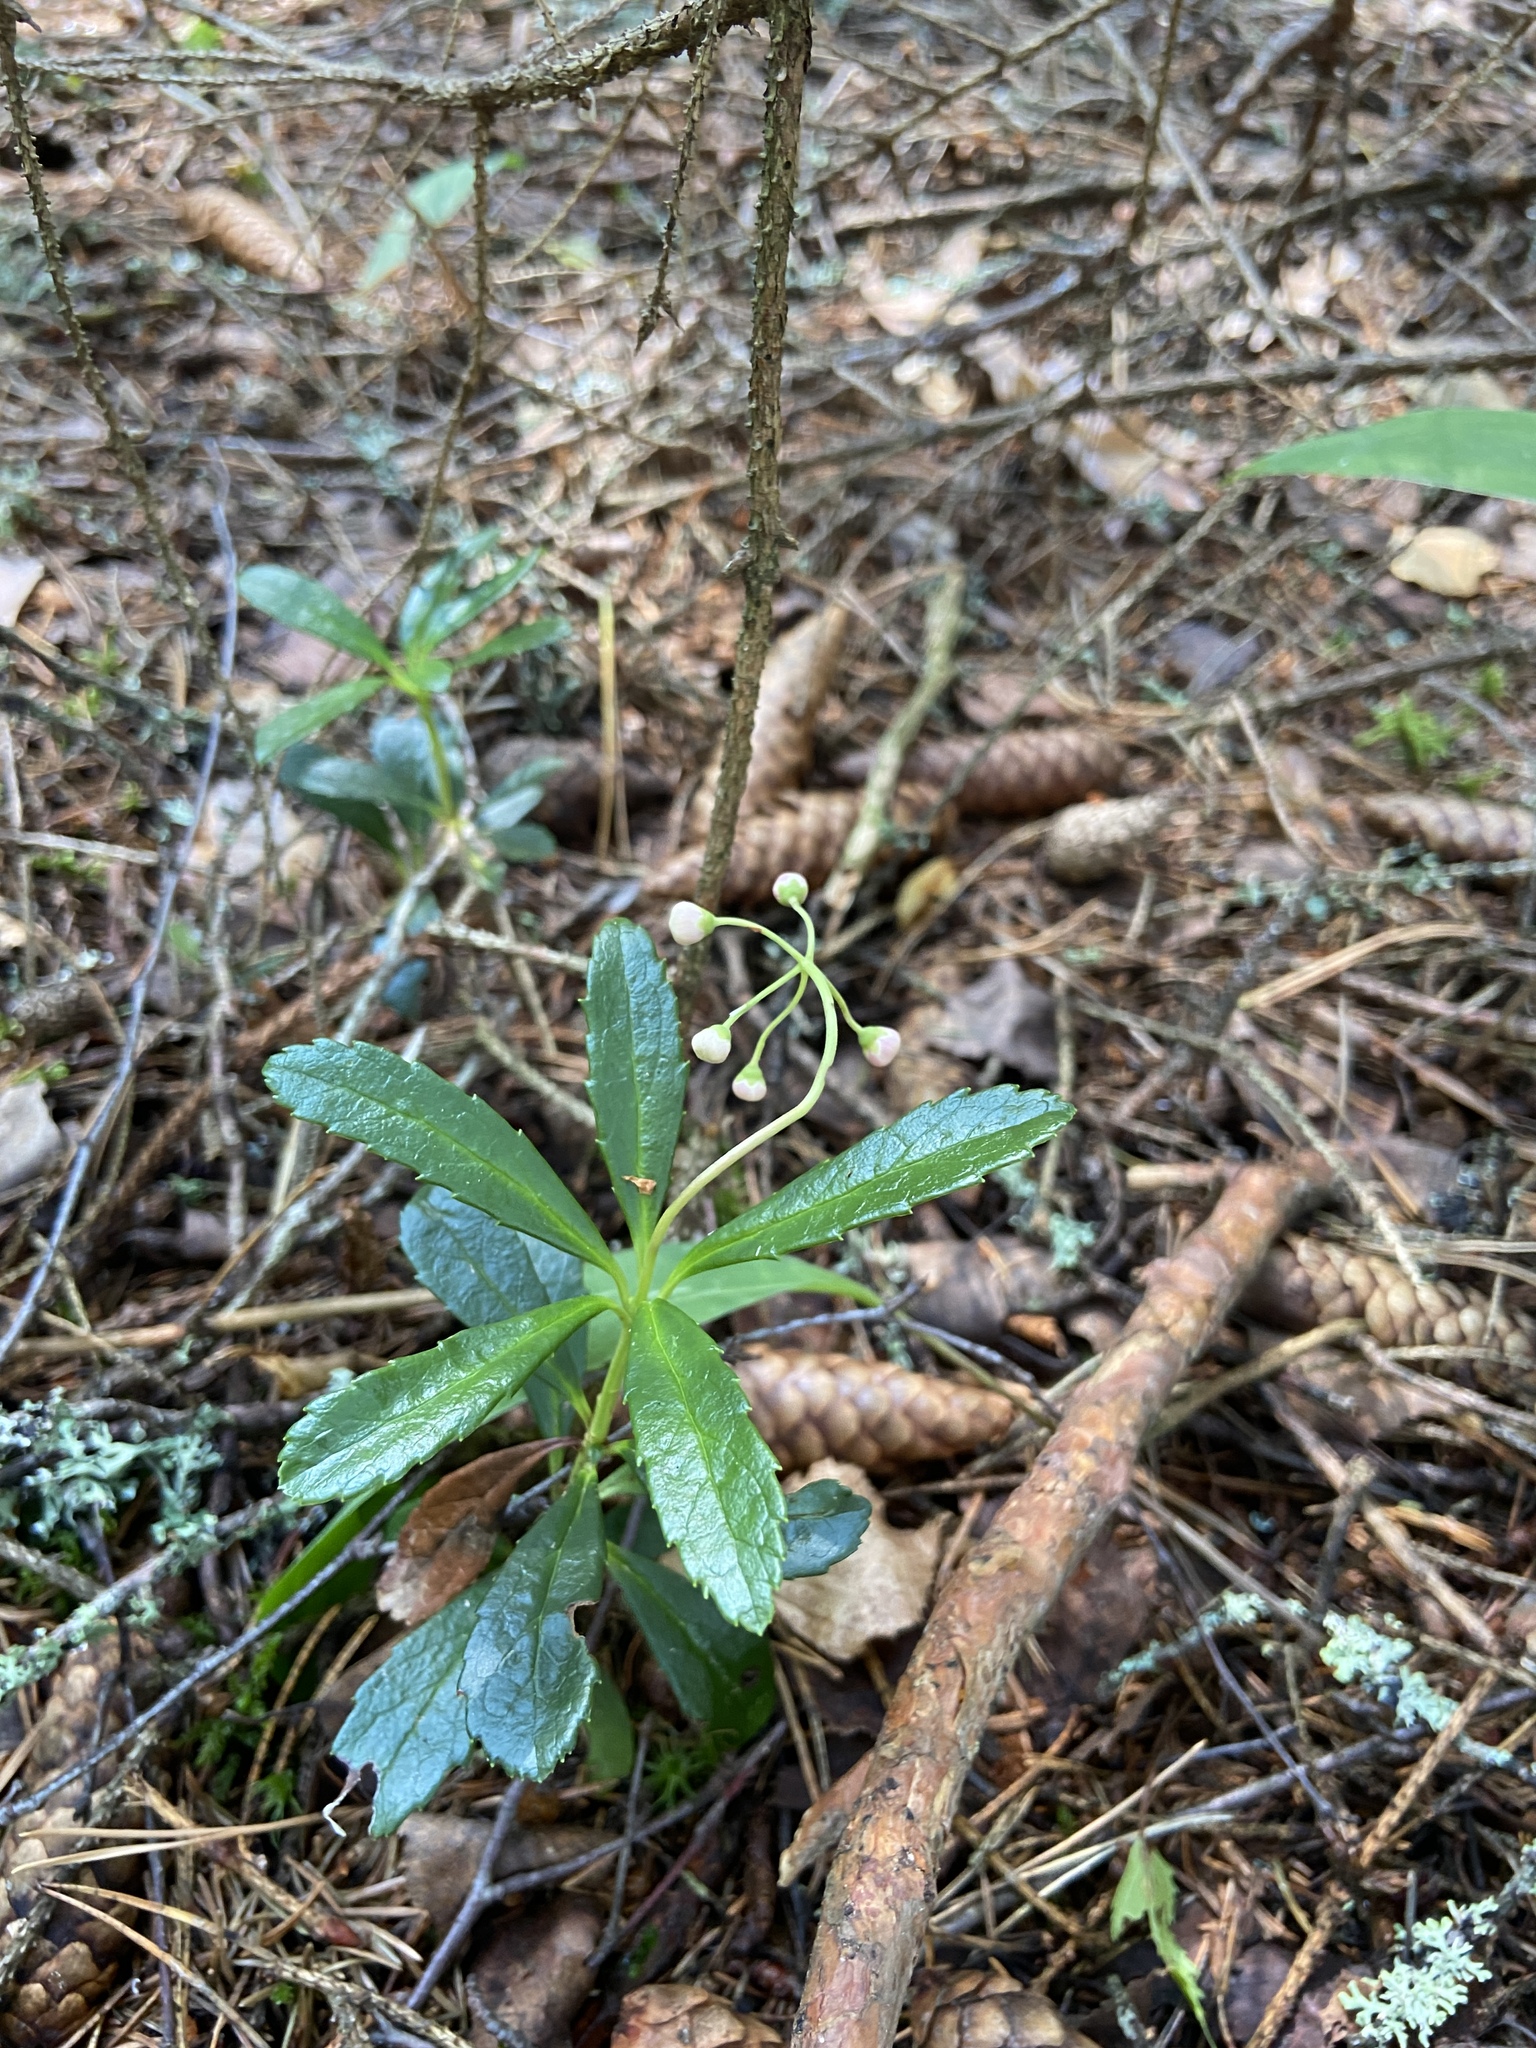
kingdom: Plantae
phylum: Tracheophyta
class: Magnoliopsida
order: Ericales
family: Ericaceae
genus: Chimaphila
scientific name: Chimaphila umbellata
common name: Pipsissewa
